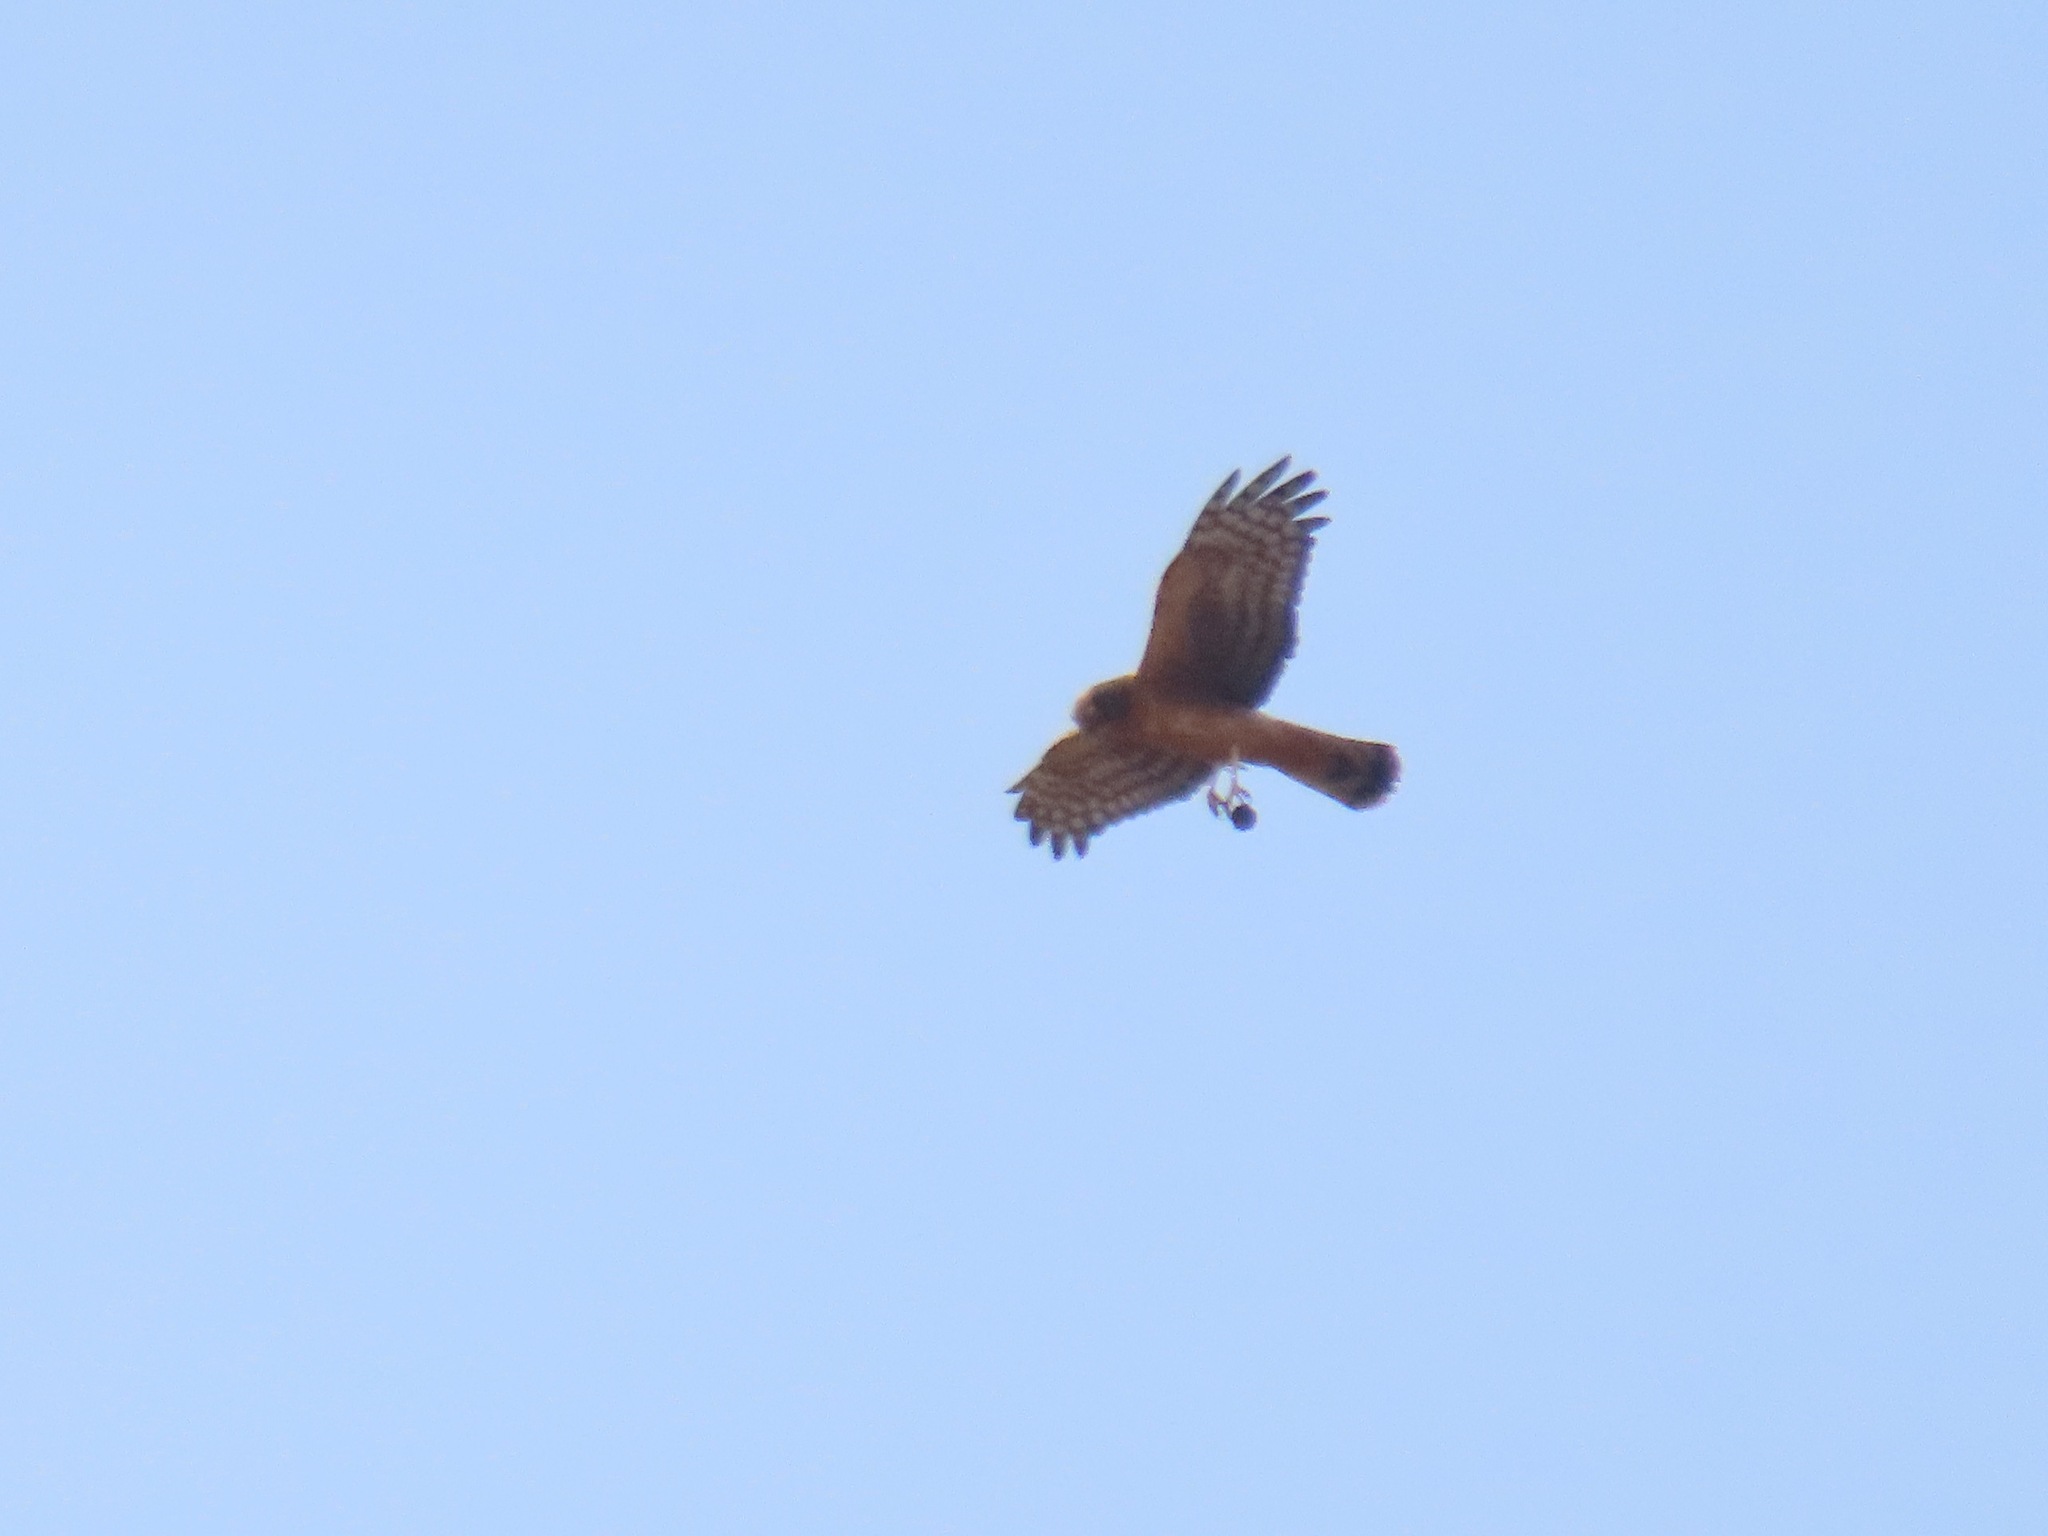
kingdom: Animalia
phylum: Chordata
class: Aves
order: Accipitriformes
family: Accipitridae
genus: Circus
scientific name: Circus cyaneus
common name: Hen harrier
